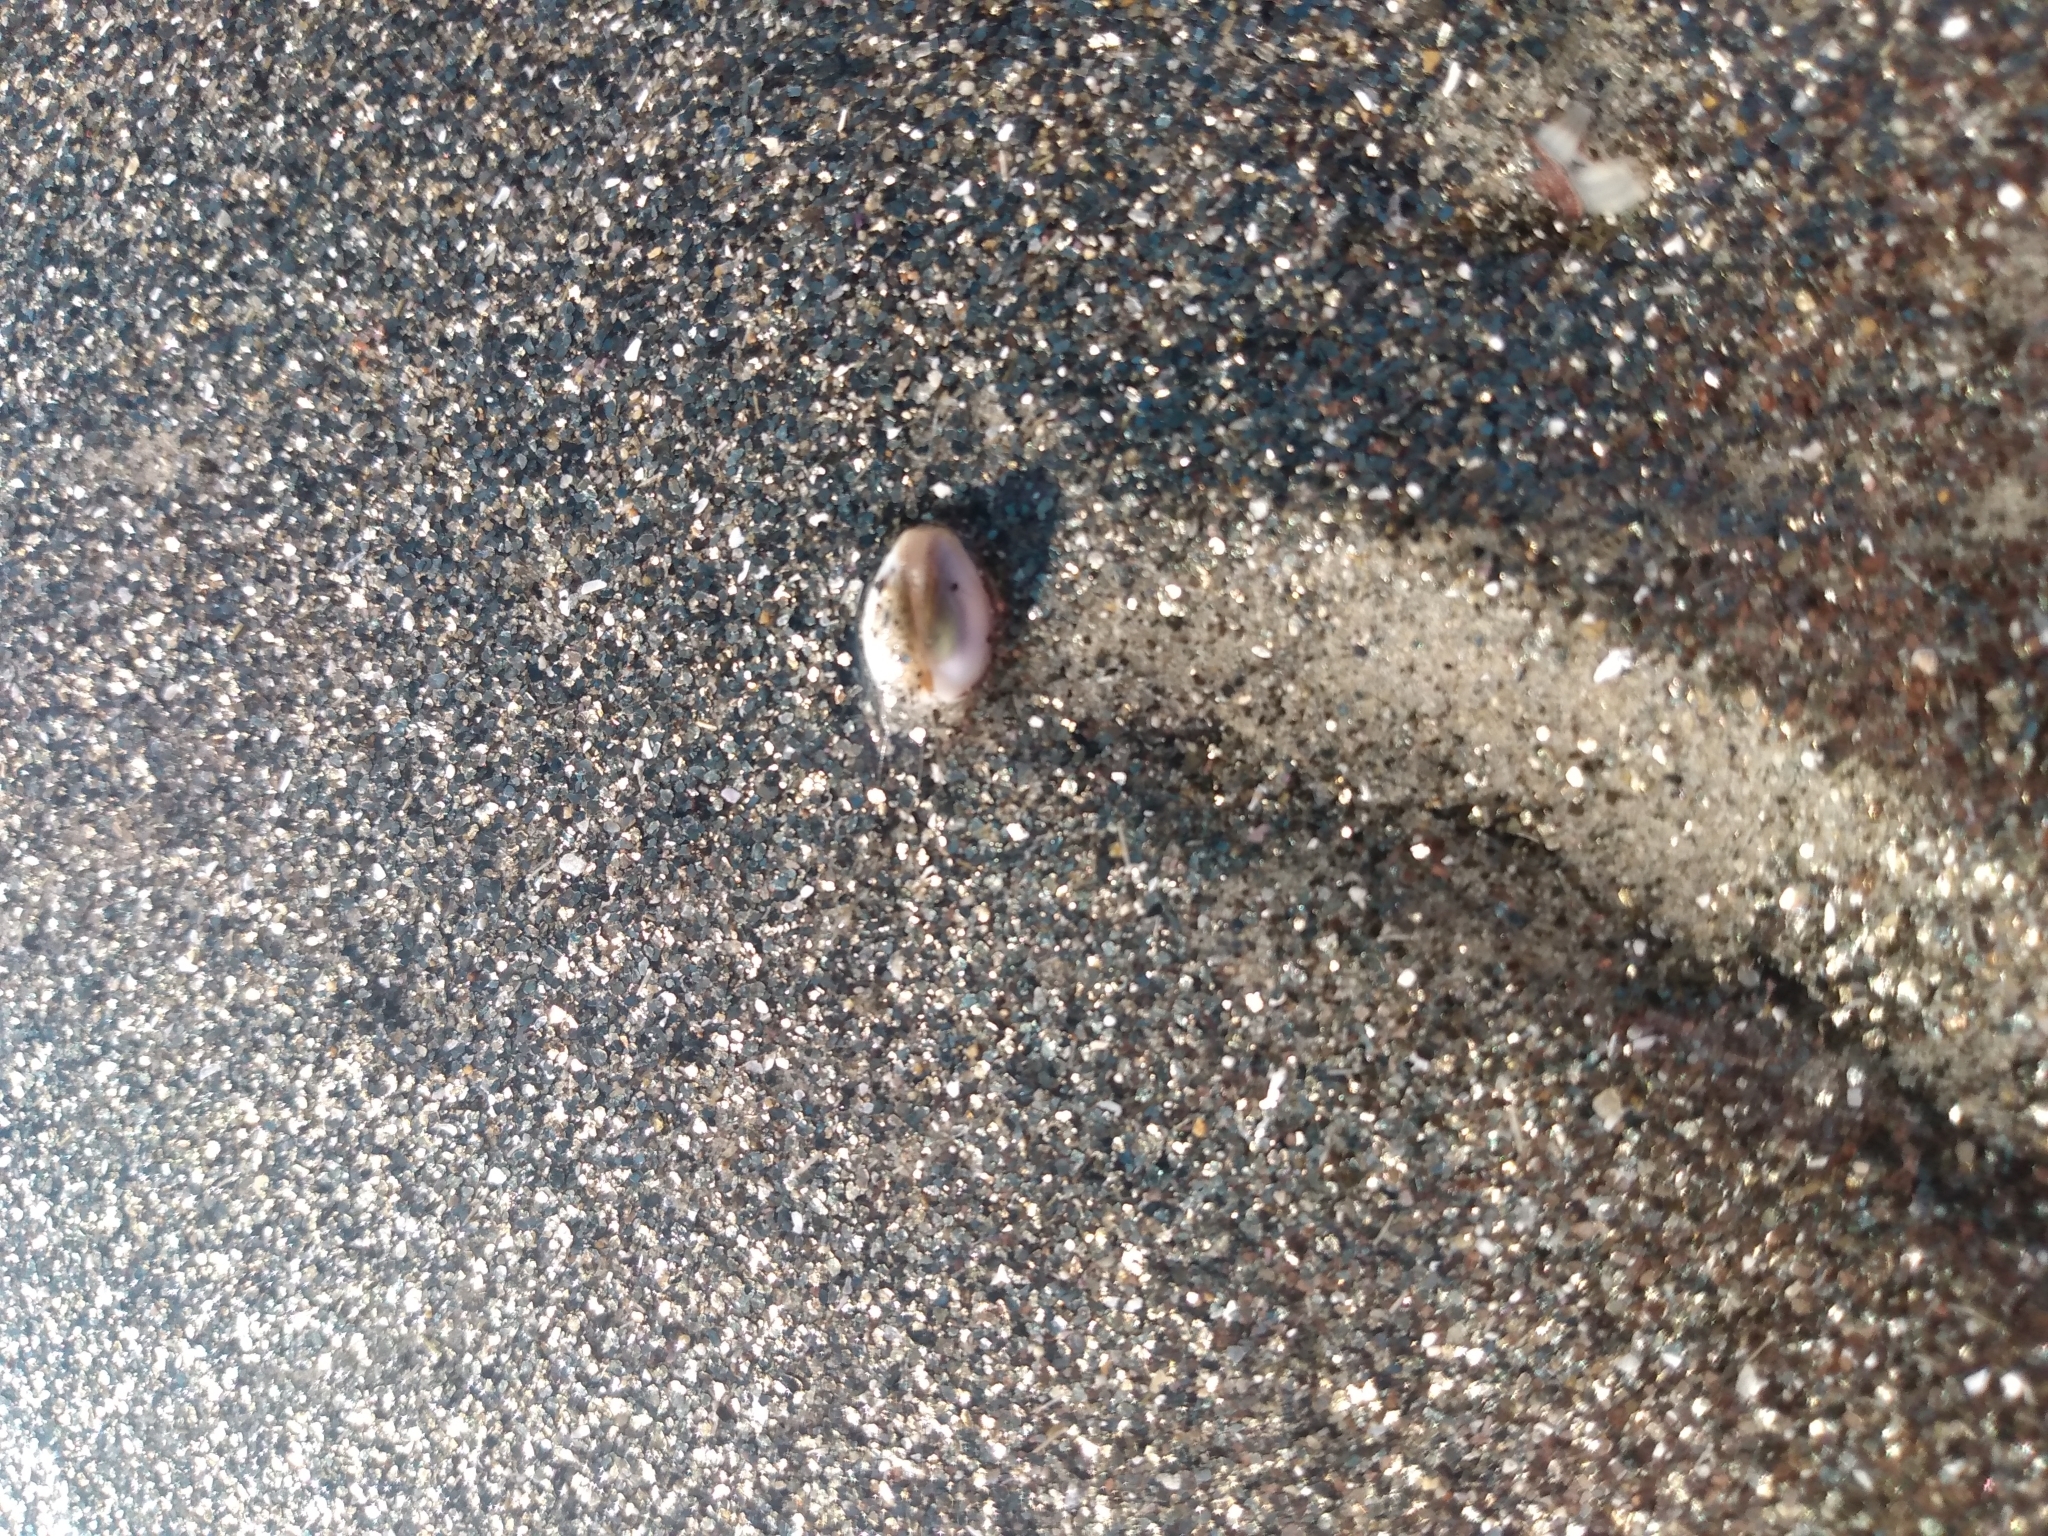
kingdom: Animalia
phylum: Mollusca
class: Bivalvia
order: Cardiida
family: Donacidae
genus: Donax
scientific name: Donax gouldii
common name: Gould beanclam
